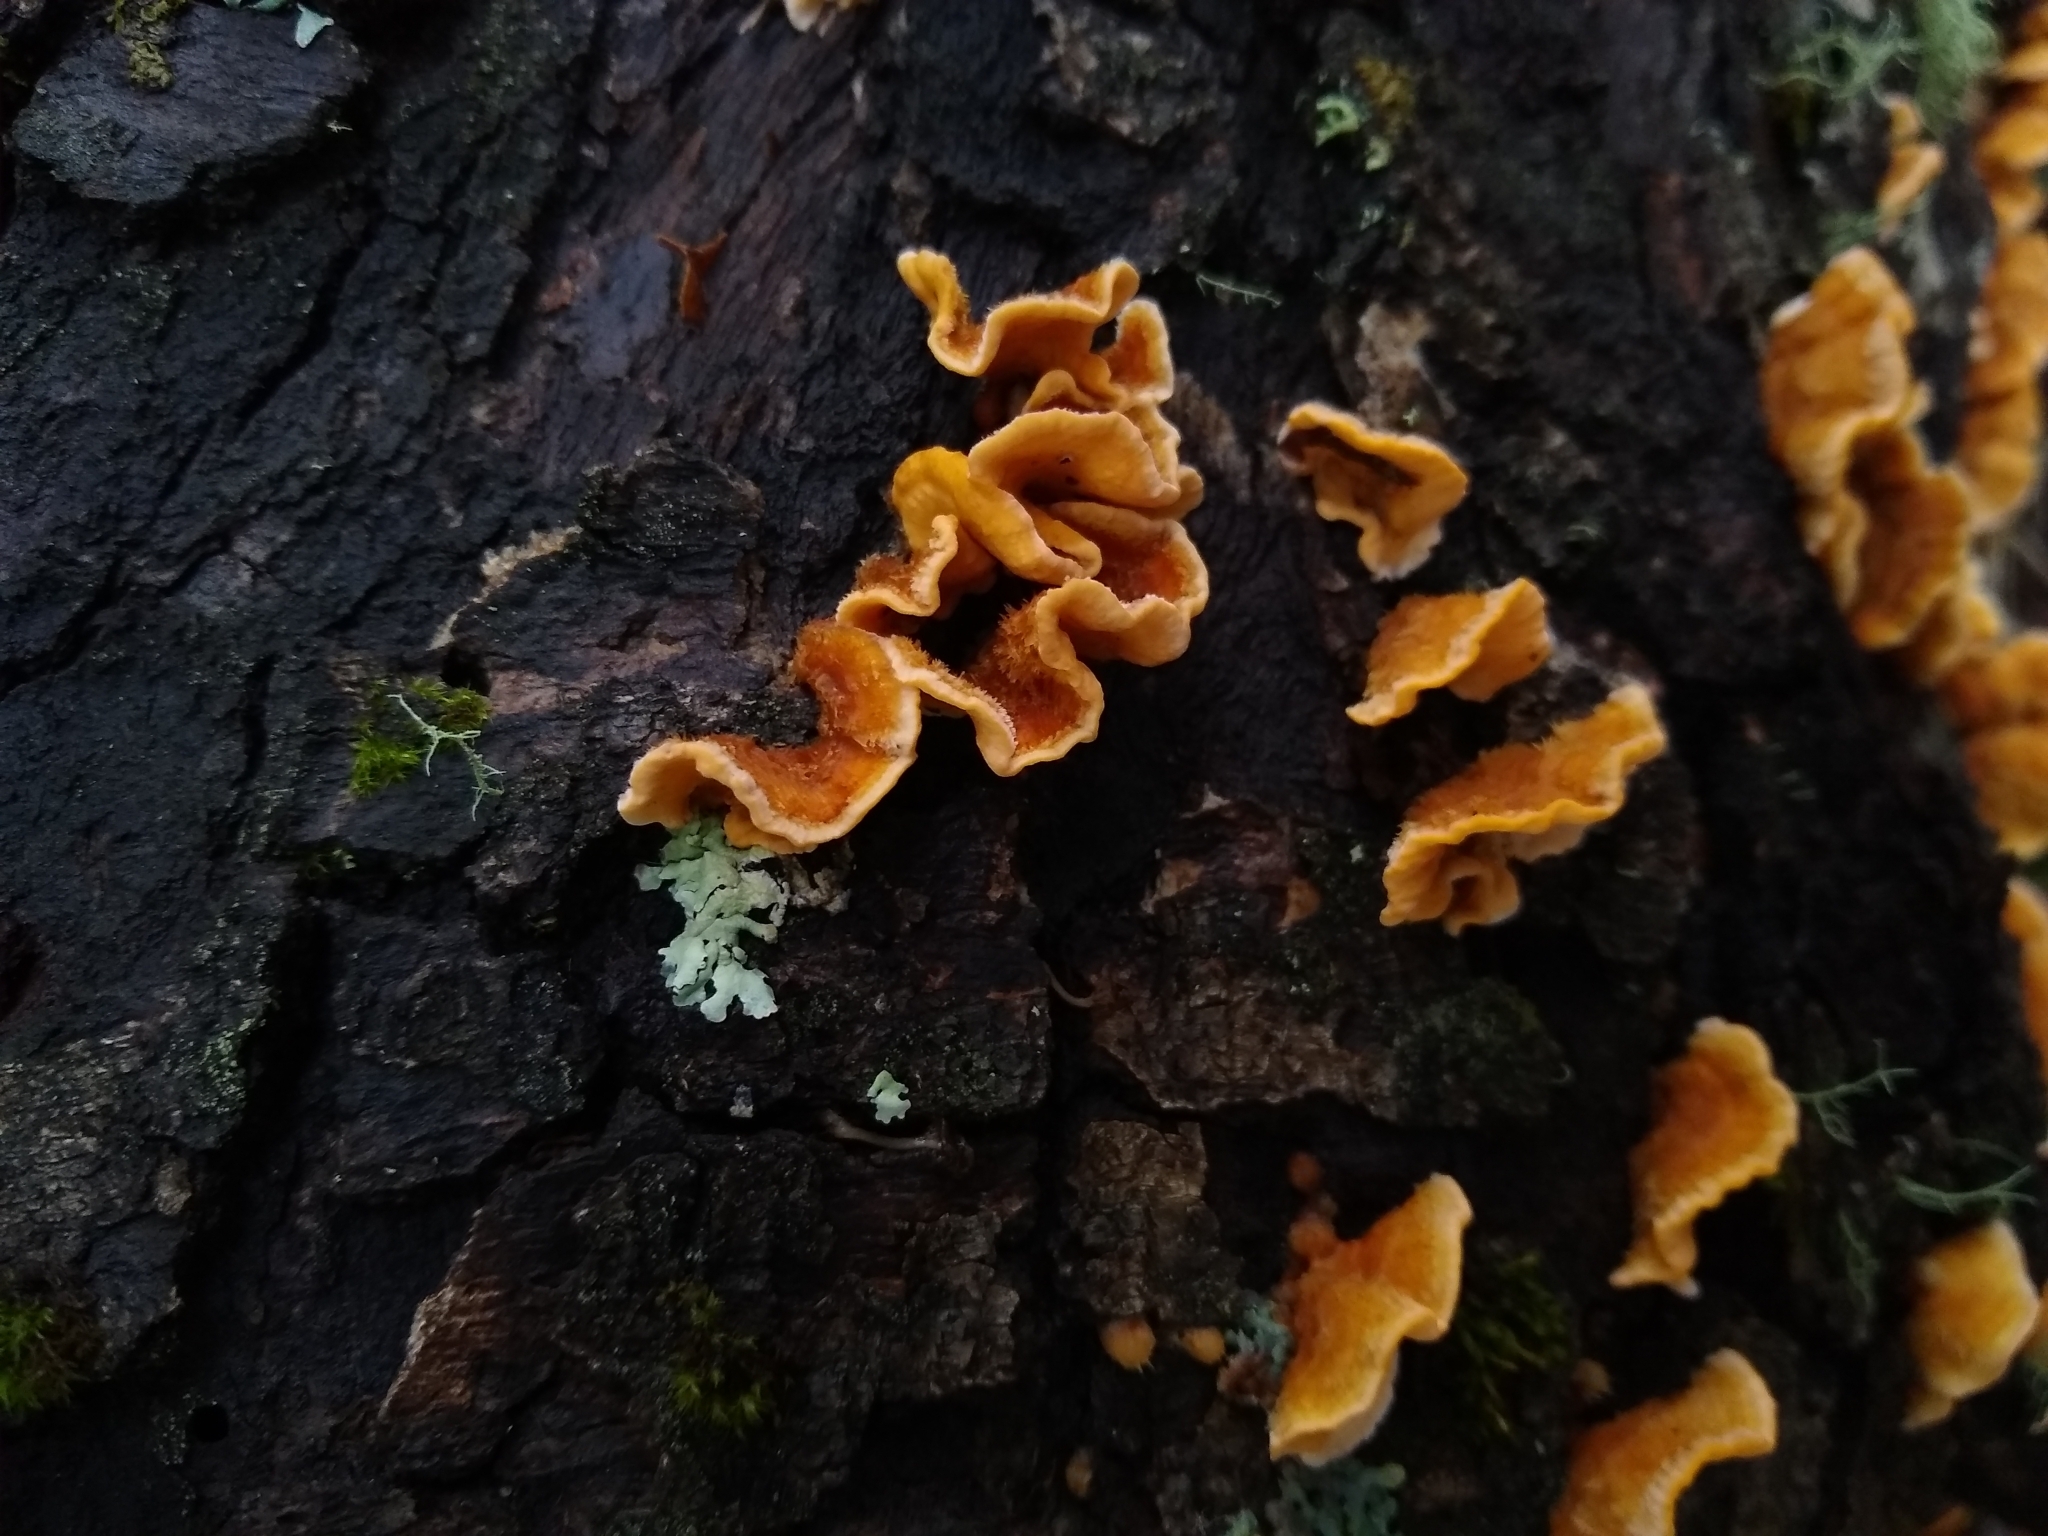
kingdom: Fungi
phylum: Basidiomycota
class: Agaricomycetes
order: Russulales
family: Stereaceae
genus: Stereum
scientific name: Stereum hirsutum
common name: Hairy curtain crust
